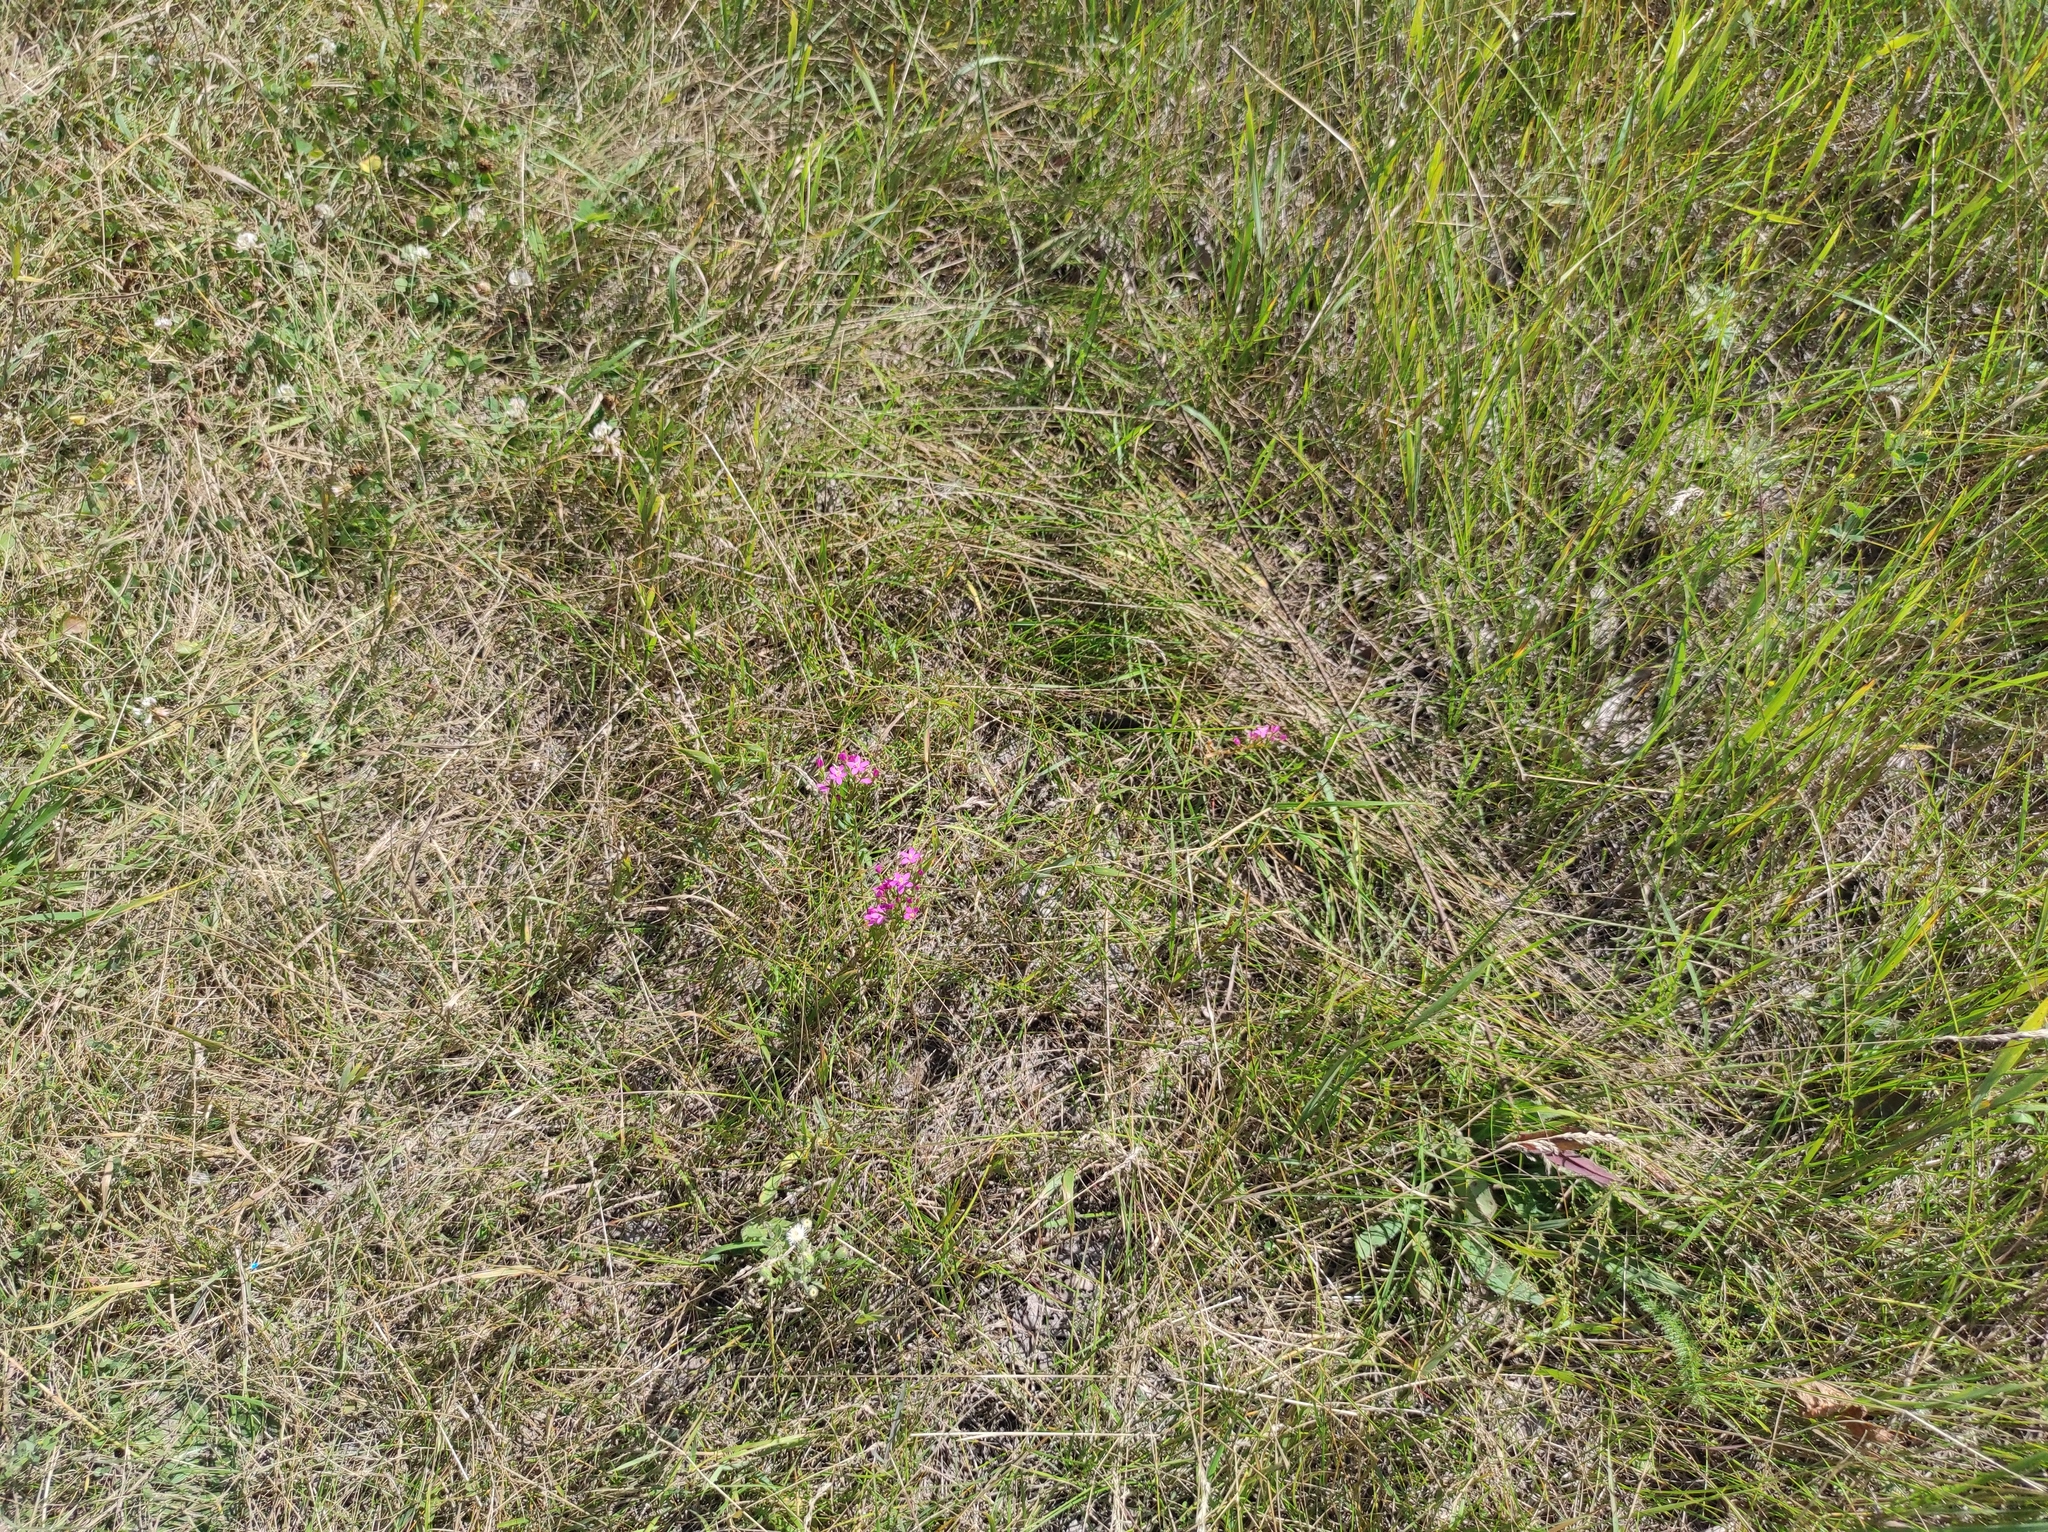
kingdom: Plantae
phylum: Tracheophyta
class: Magnoliopsida
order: Gentianales
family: Gentianaceae
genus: Centaurium
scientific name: Centaurium pulchellum
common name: Lesser centaury
